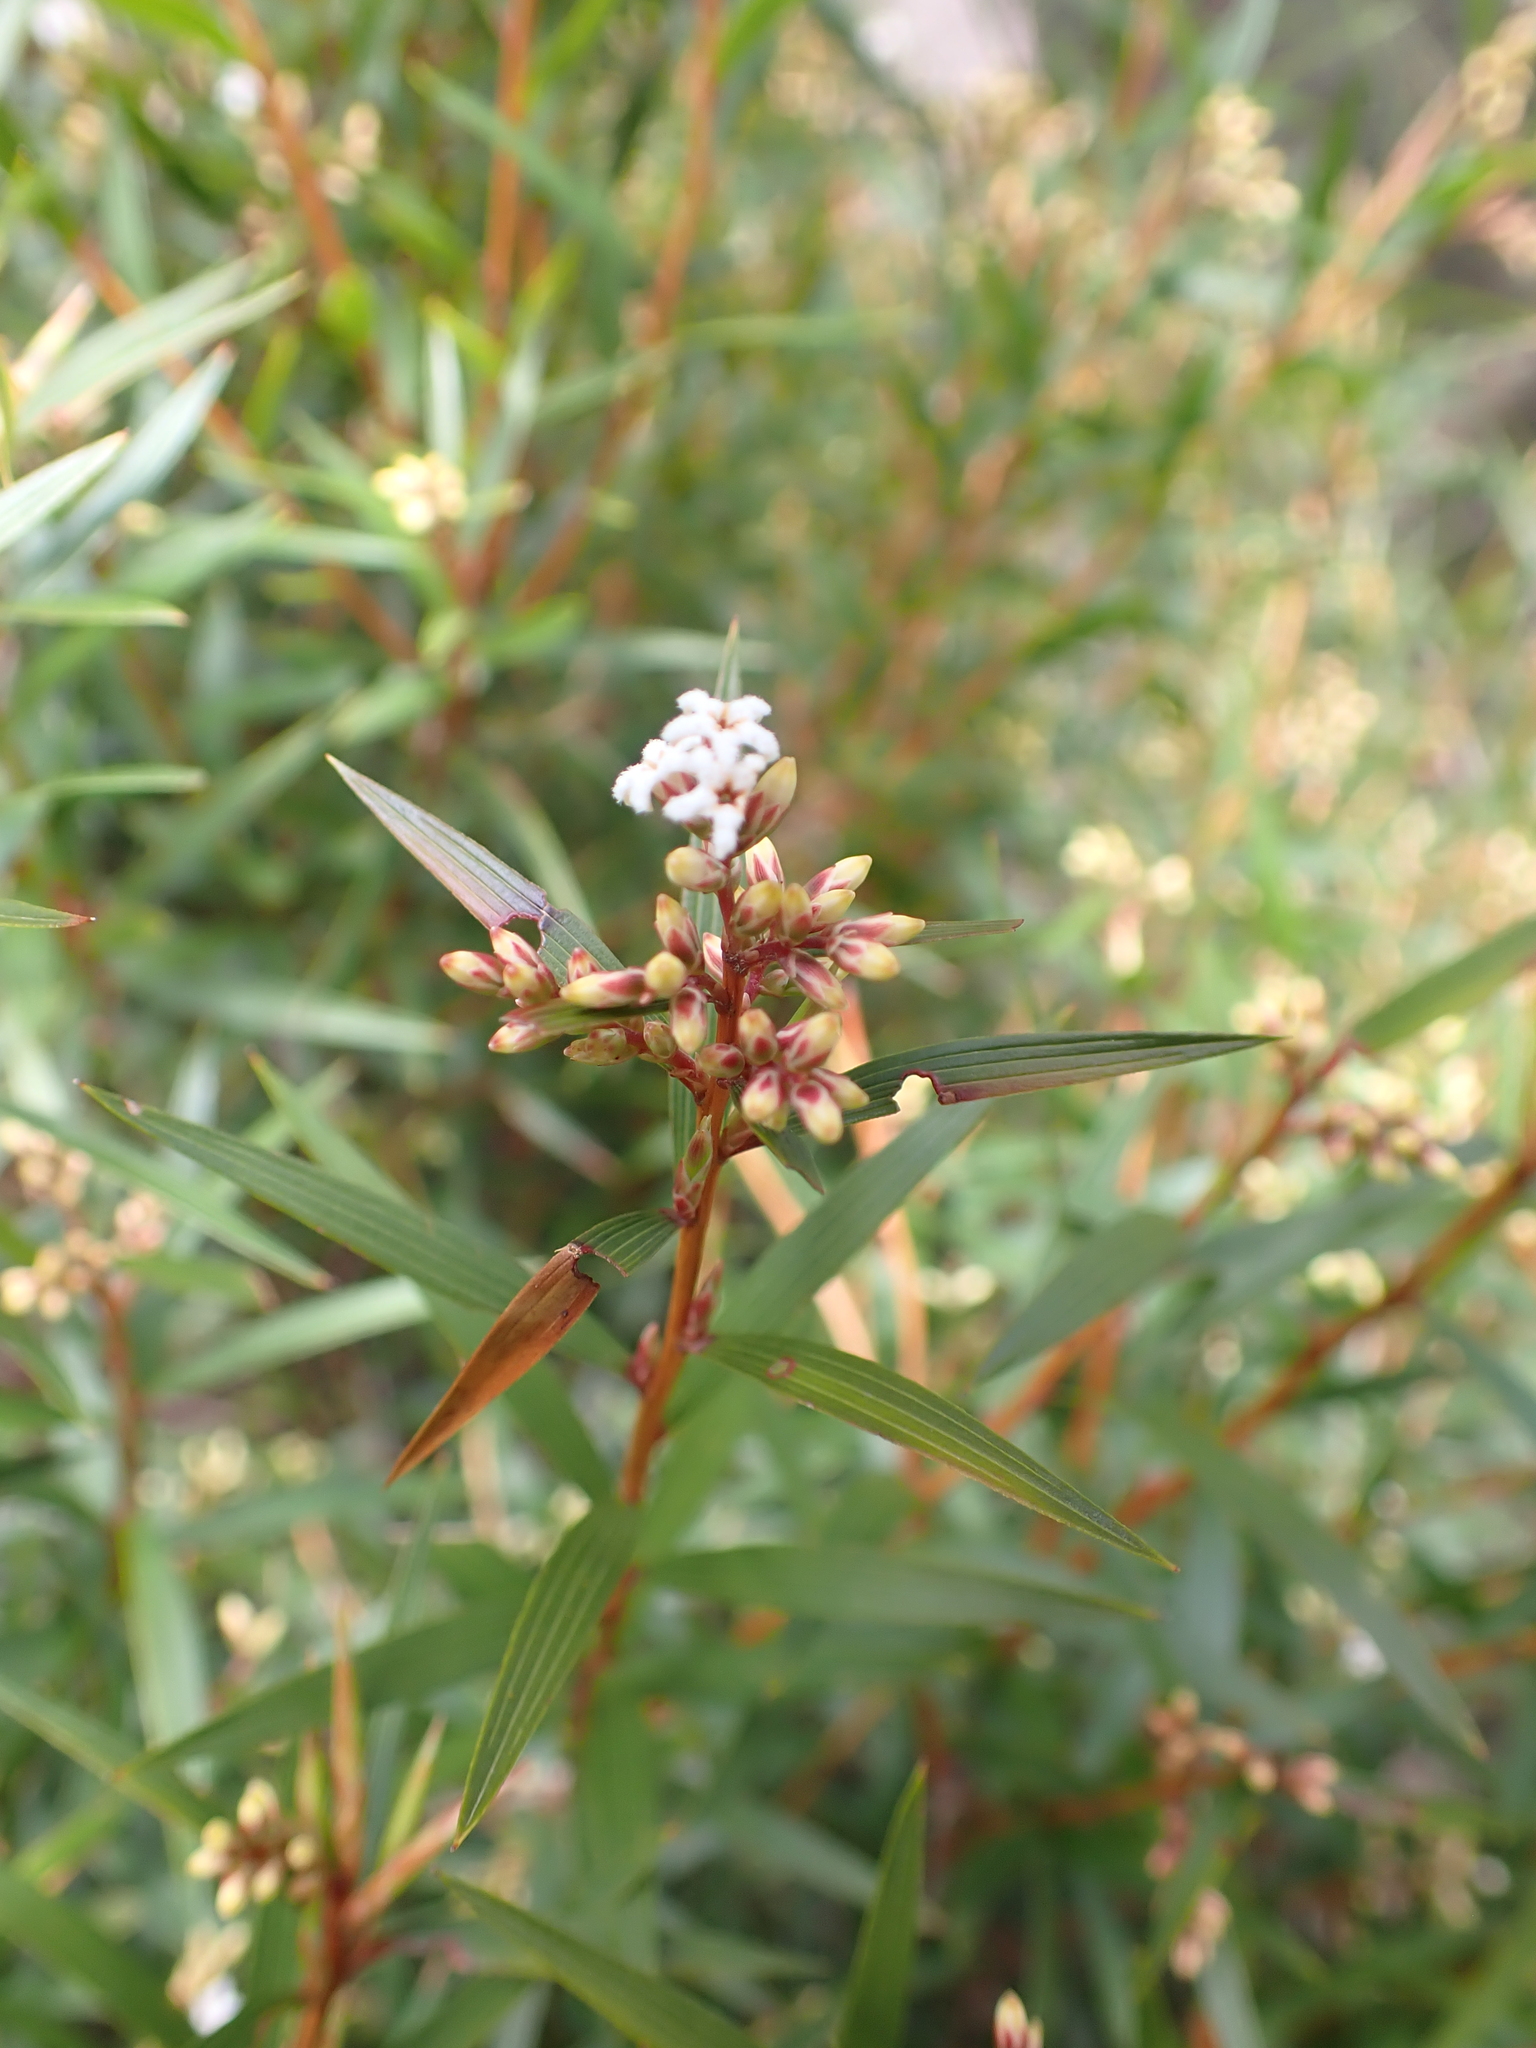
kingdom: Plantae
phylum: Tracheophyta
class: Magnoliopsida
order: Ericales
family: Ericaceae
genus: Leucopogon
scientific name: Leucopogon neurophyllus
